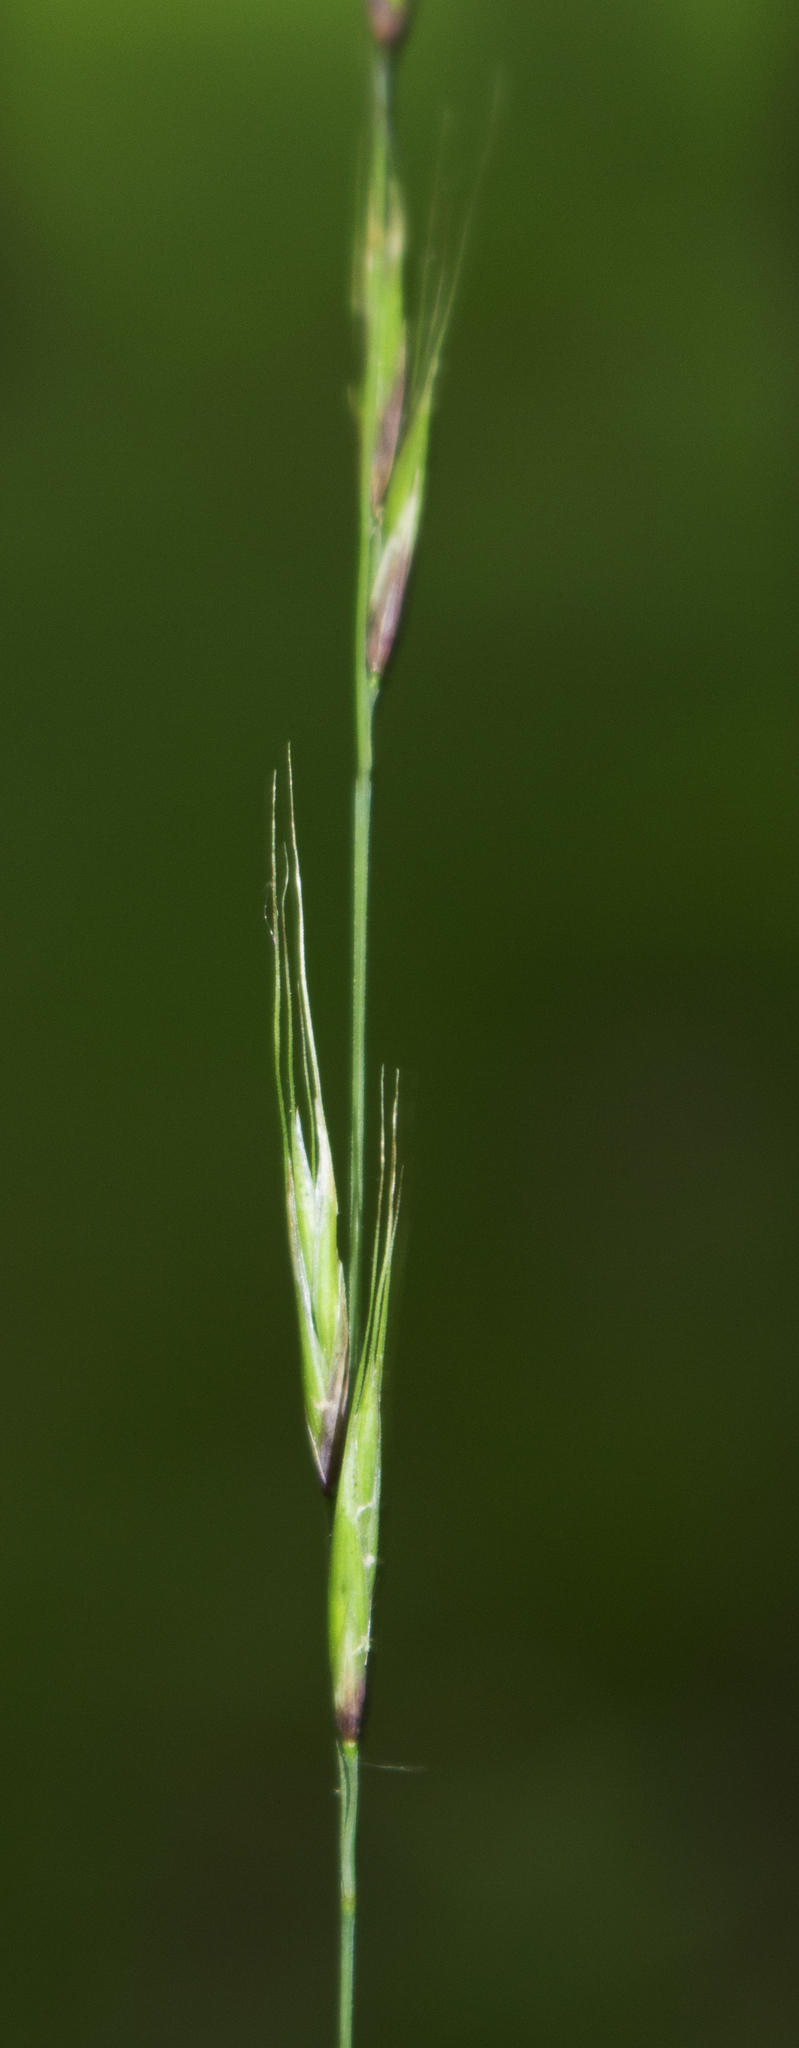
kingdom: Plantae
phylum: Tracheophyta
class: Liliopsida
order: Poales
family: Poaceae
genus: Schizachne
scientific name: Schizachne purpurascens
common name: False melic
